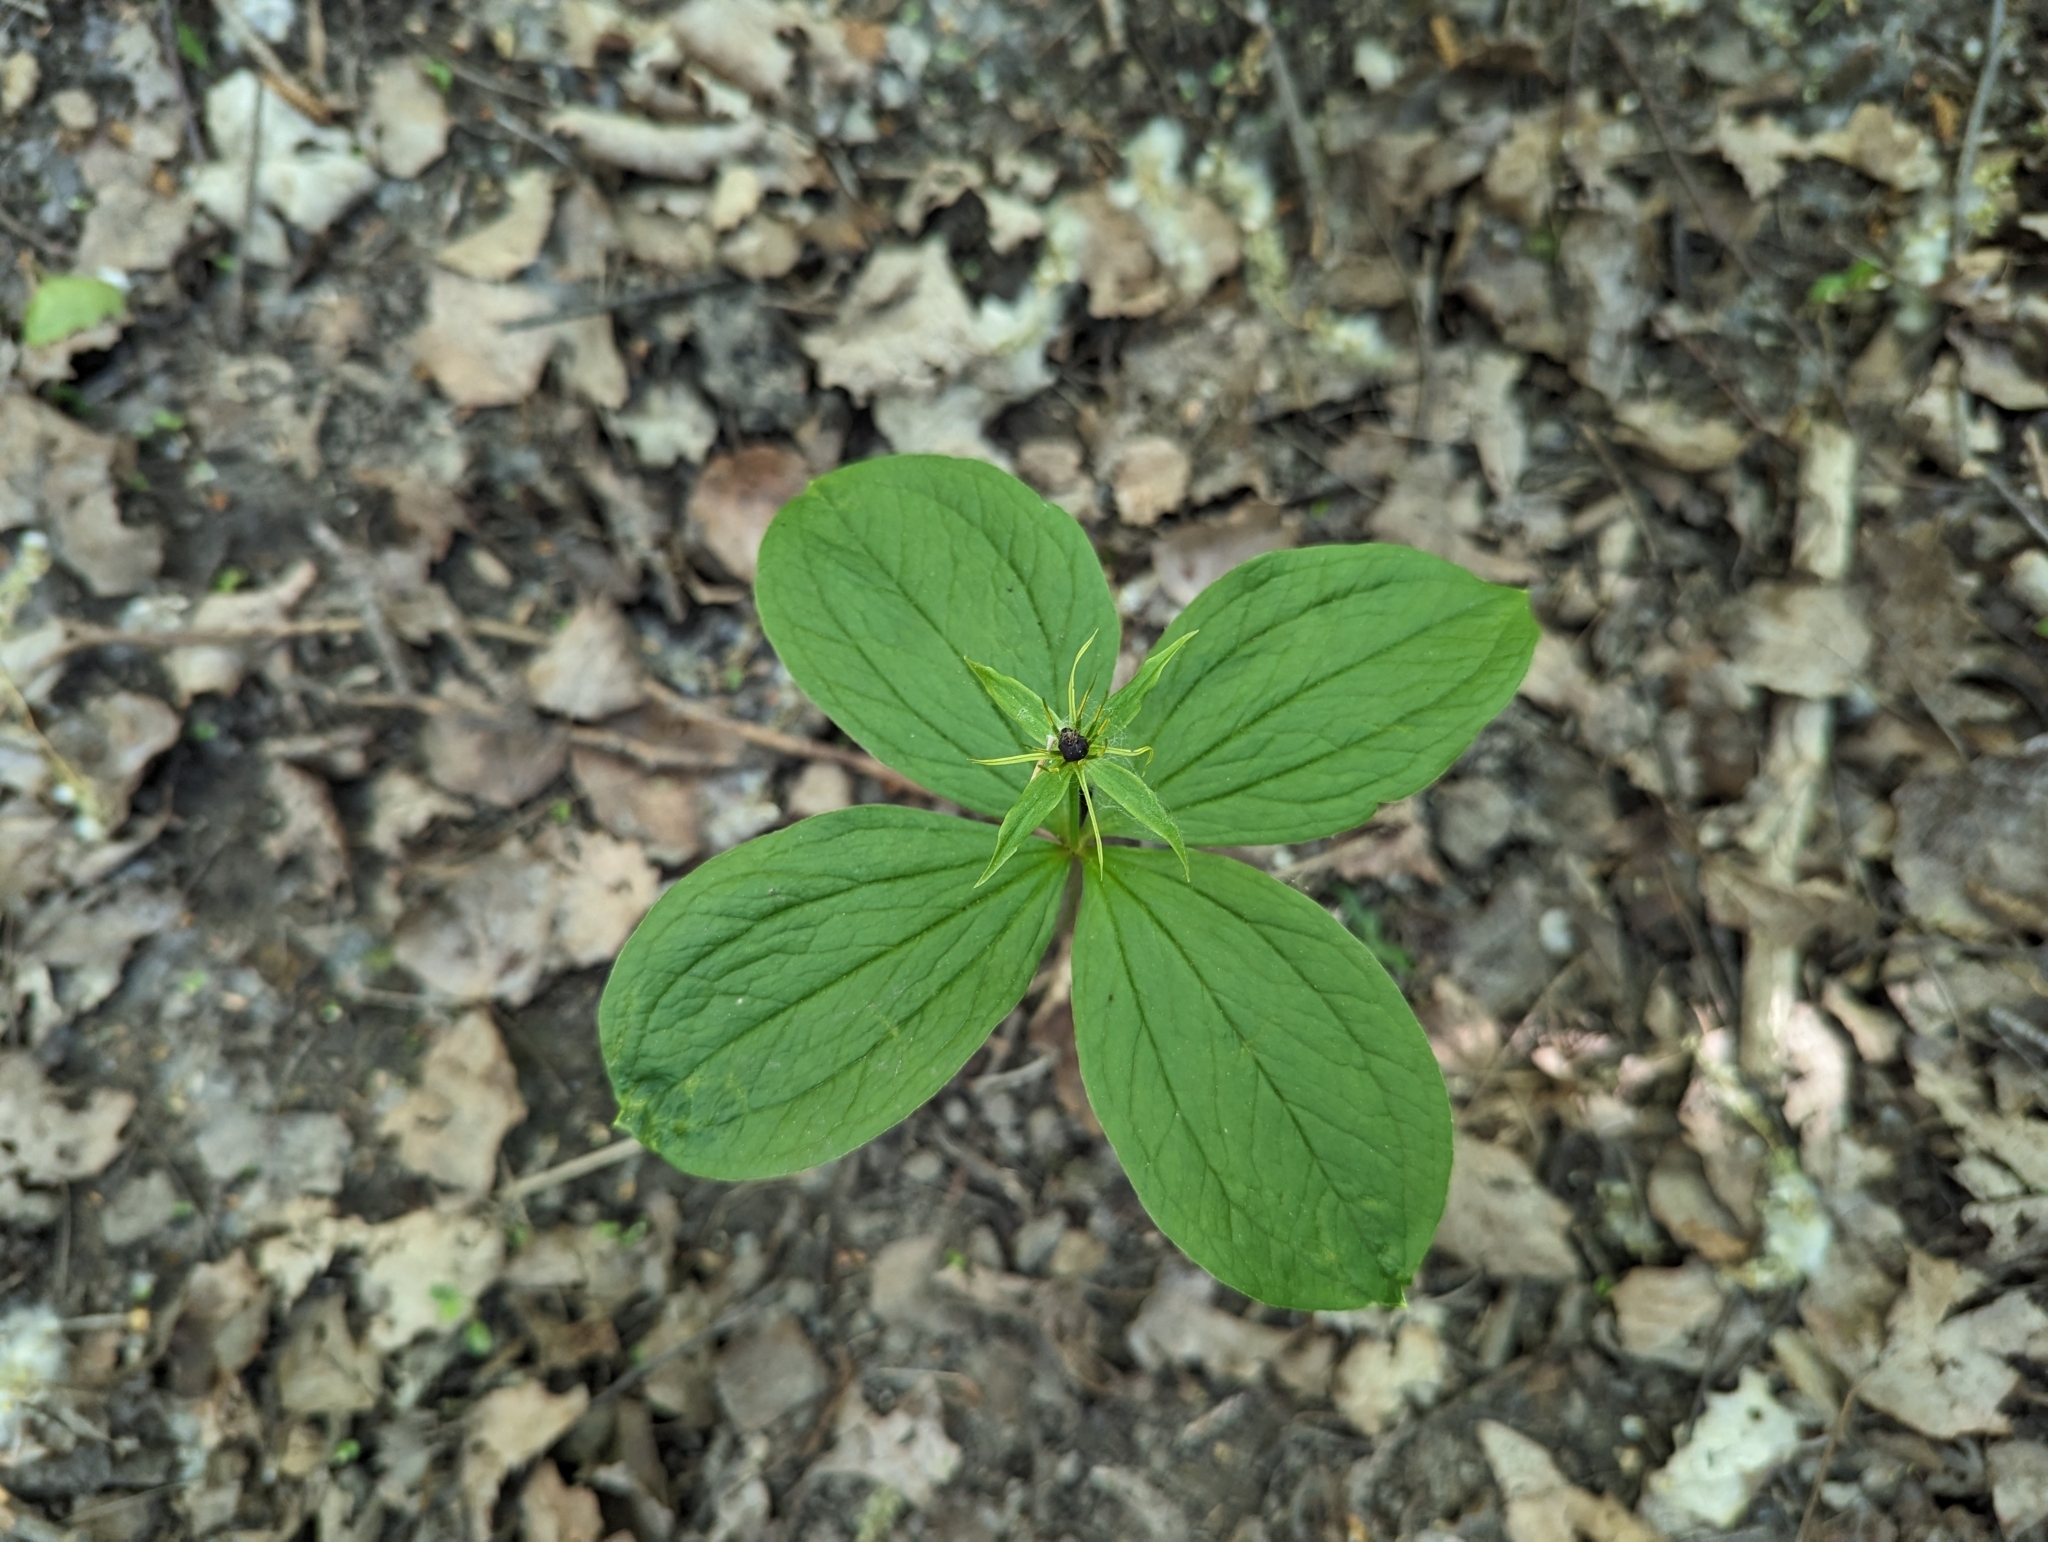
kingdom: Plantae
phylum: Tracheophyta
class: Liliopsida
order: Liliales
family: Melanthiaceae
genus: Paris
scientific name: Paris quadrifolia
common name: Herb-paris
